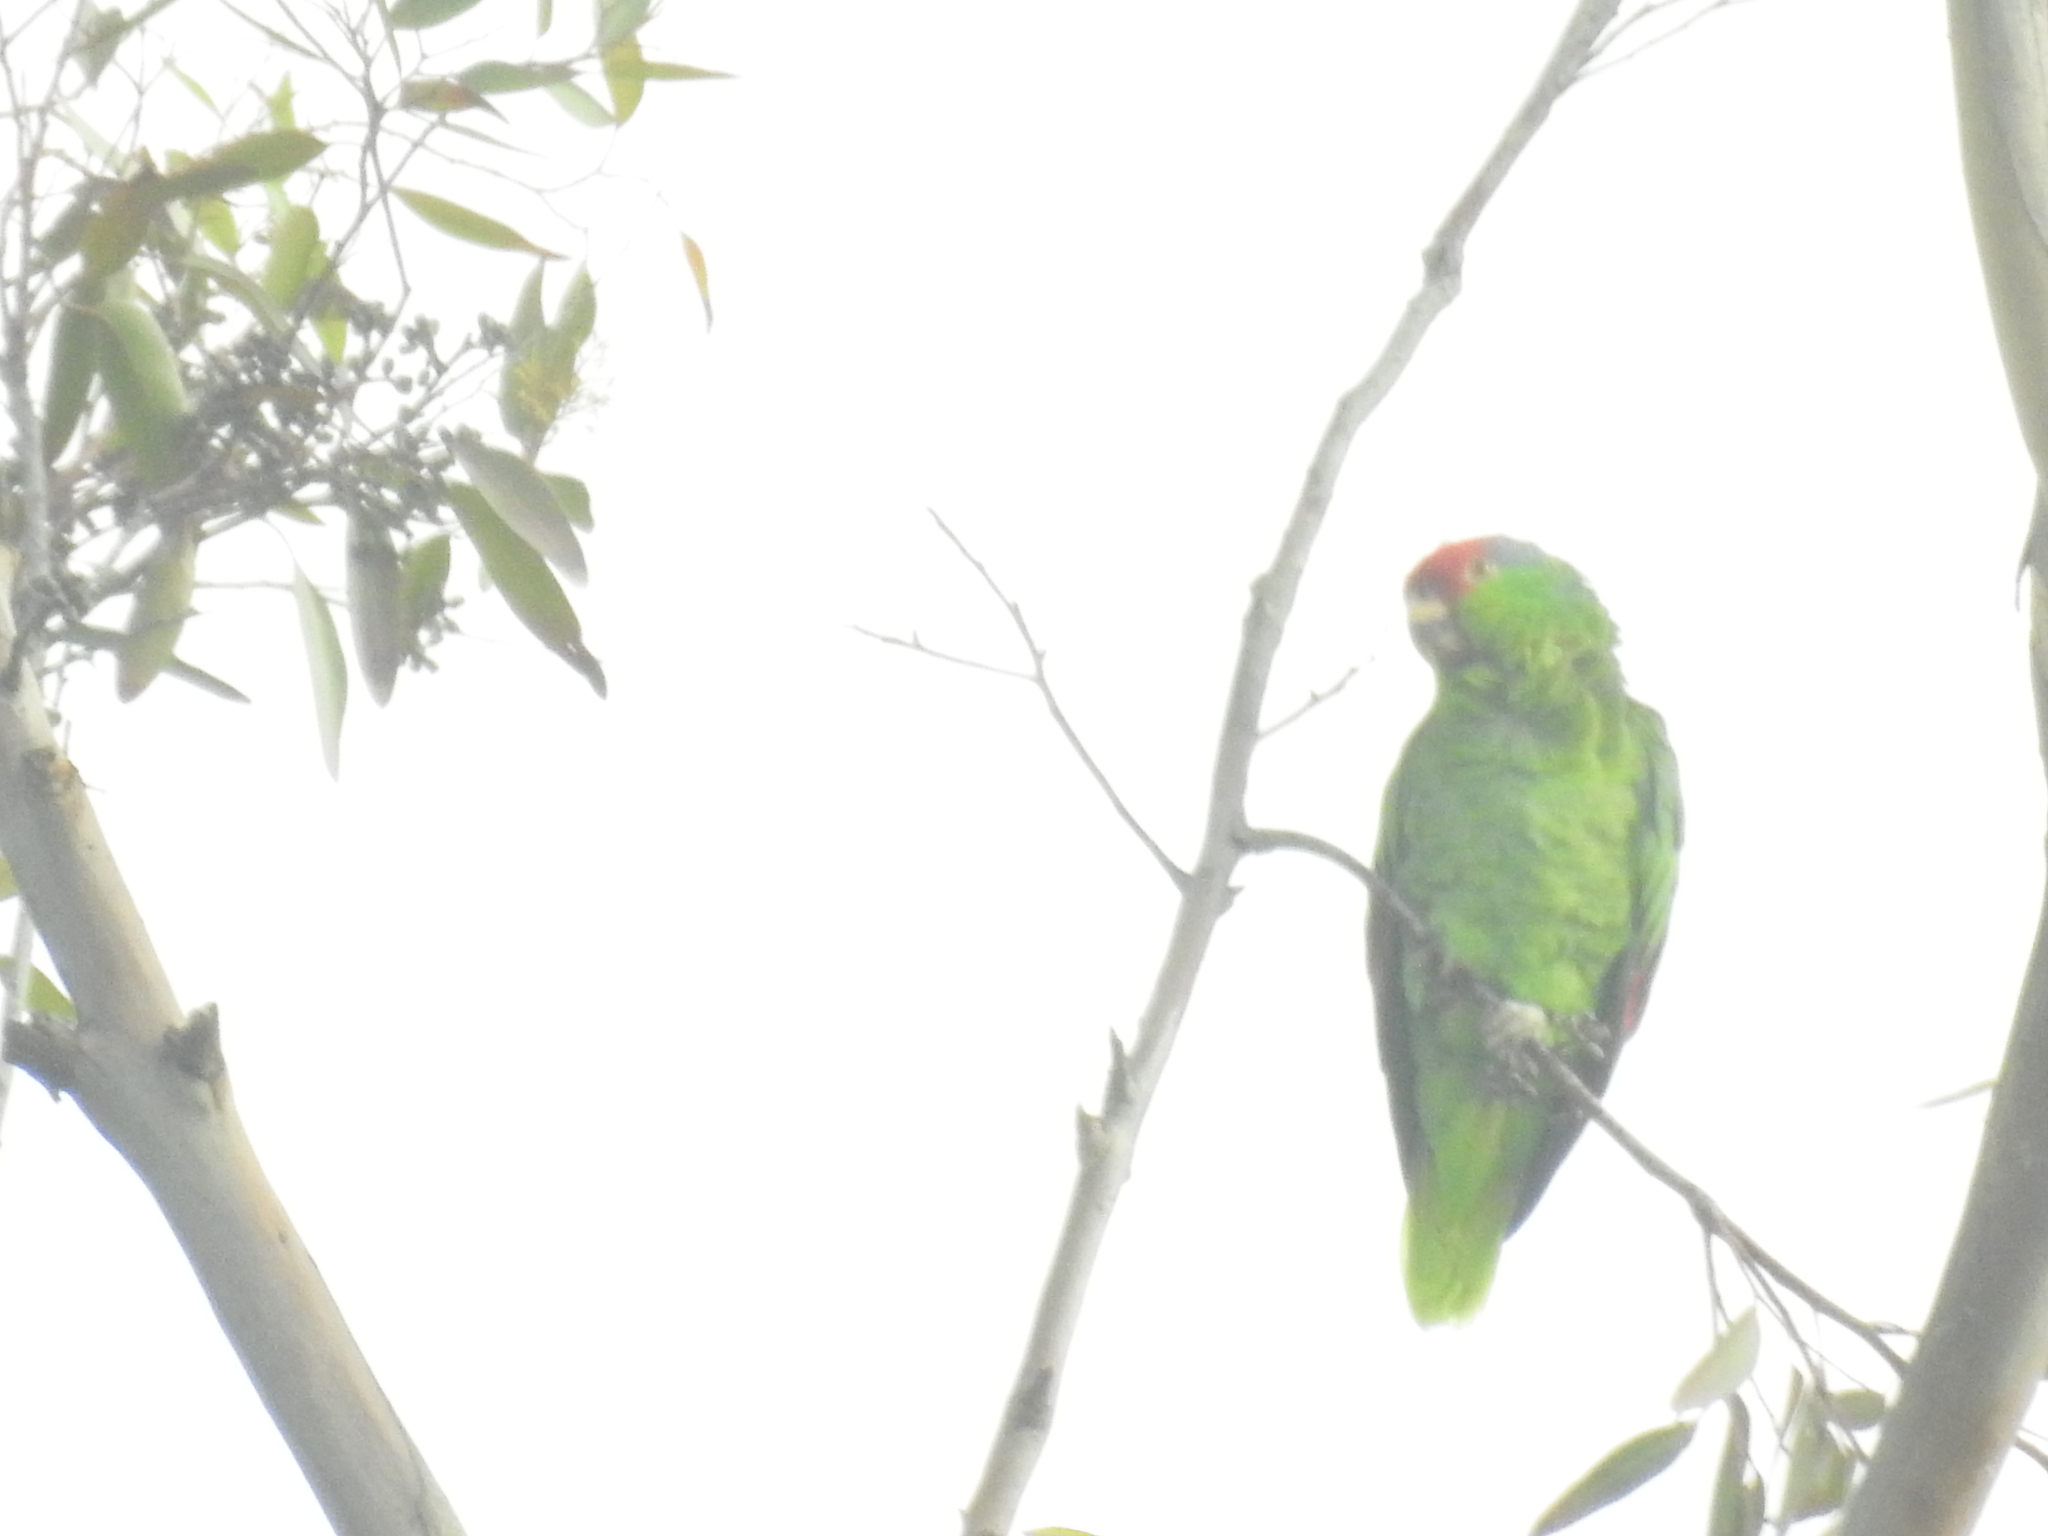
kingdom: Animalia
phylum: Chordata
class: Aves
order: Psittaciformes
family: Psittacidae
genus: Amazona
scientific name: Amazona viridigenalis
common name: Red-crowned amazon
